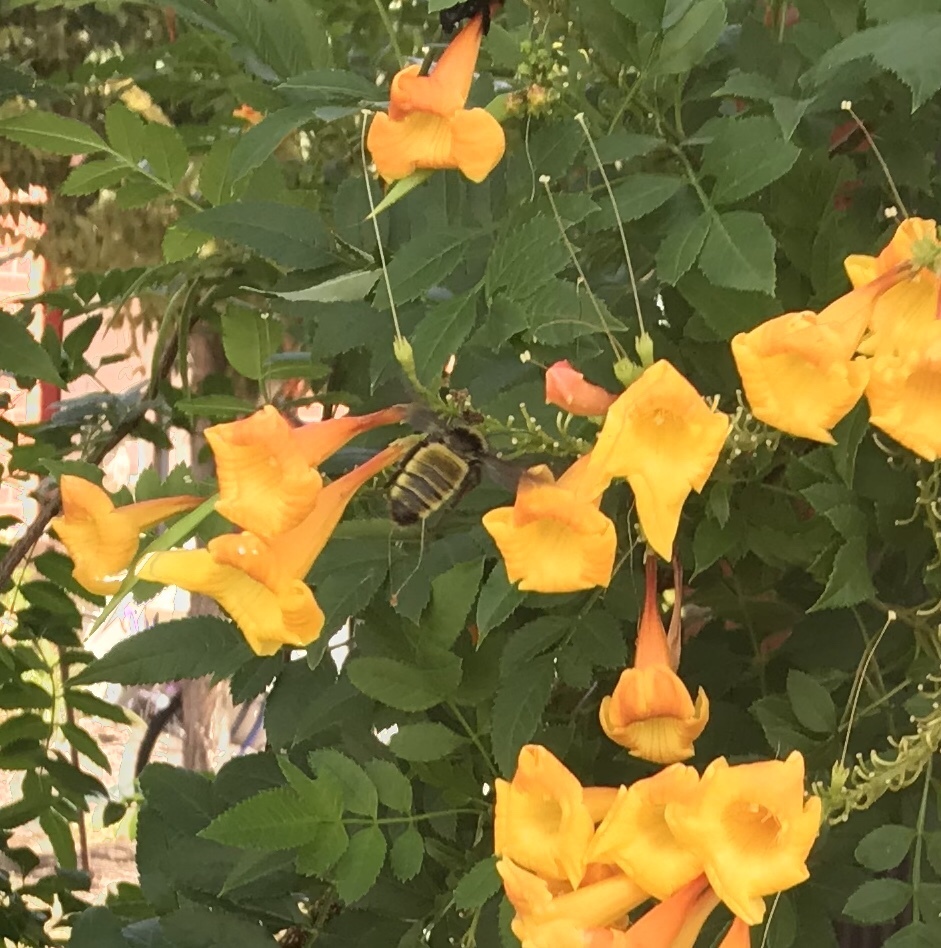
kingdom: Animalia
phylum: Arthropoda
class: Insecta
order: Hymenoptera
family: Apidae
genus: Bombus
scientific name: Bombus pensylvanicus
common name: Bumble bee
